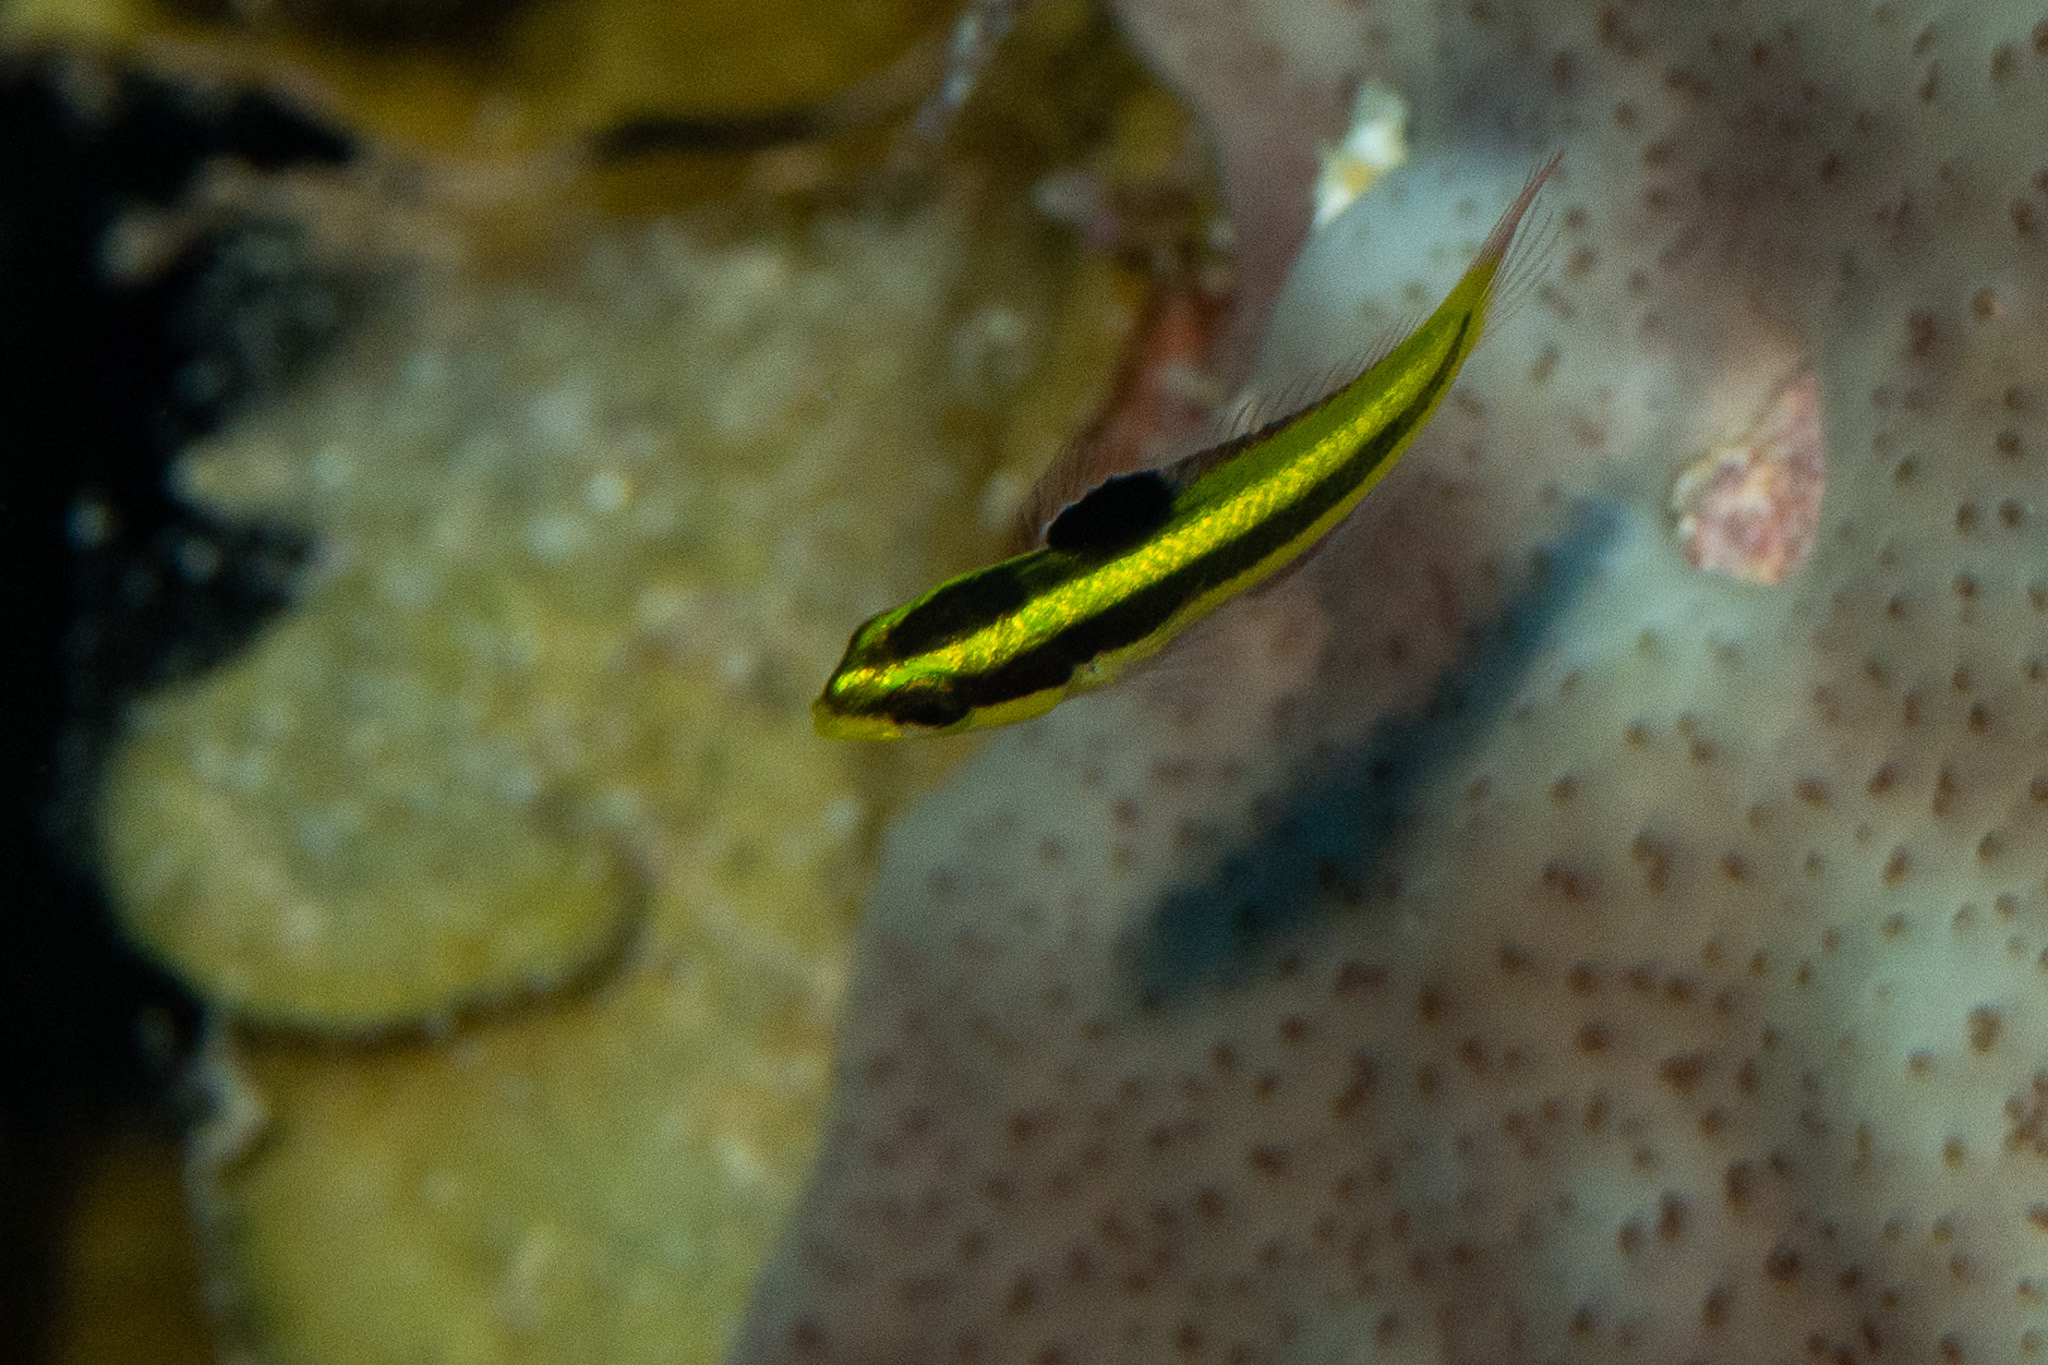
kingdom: Animalia
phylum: Chordata
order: Perciformes
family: Labridae
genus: Thalassoma
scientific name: Thalassoma bifasciatum
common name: Bluehead wrasse
